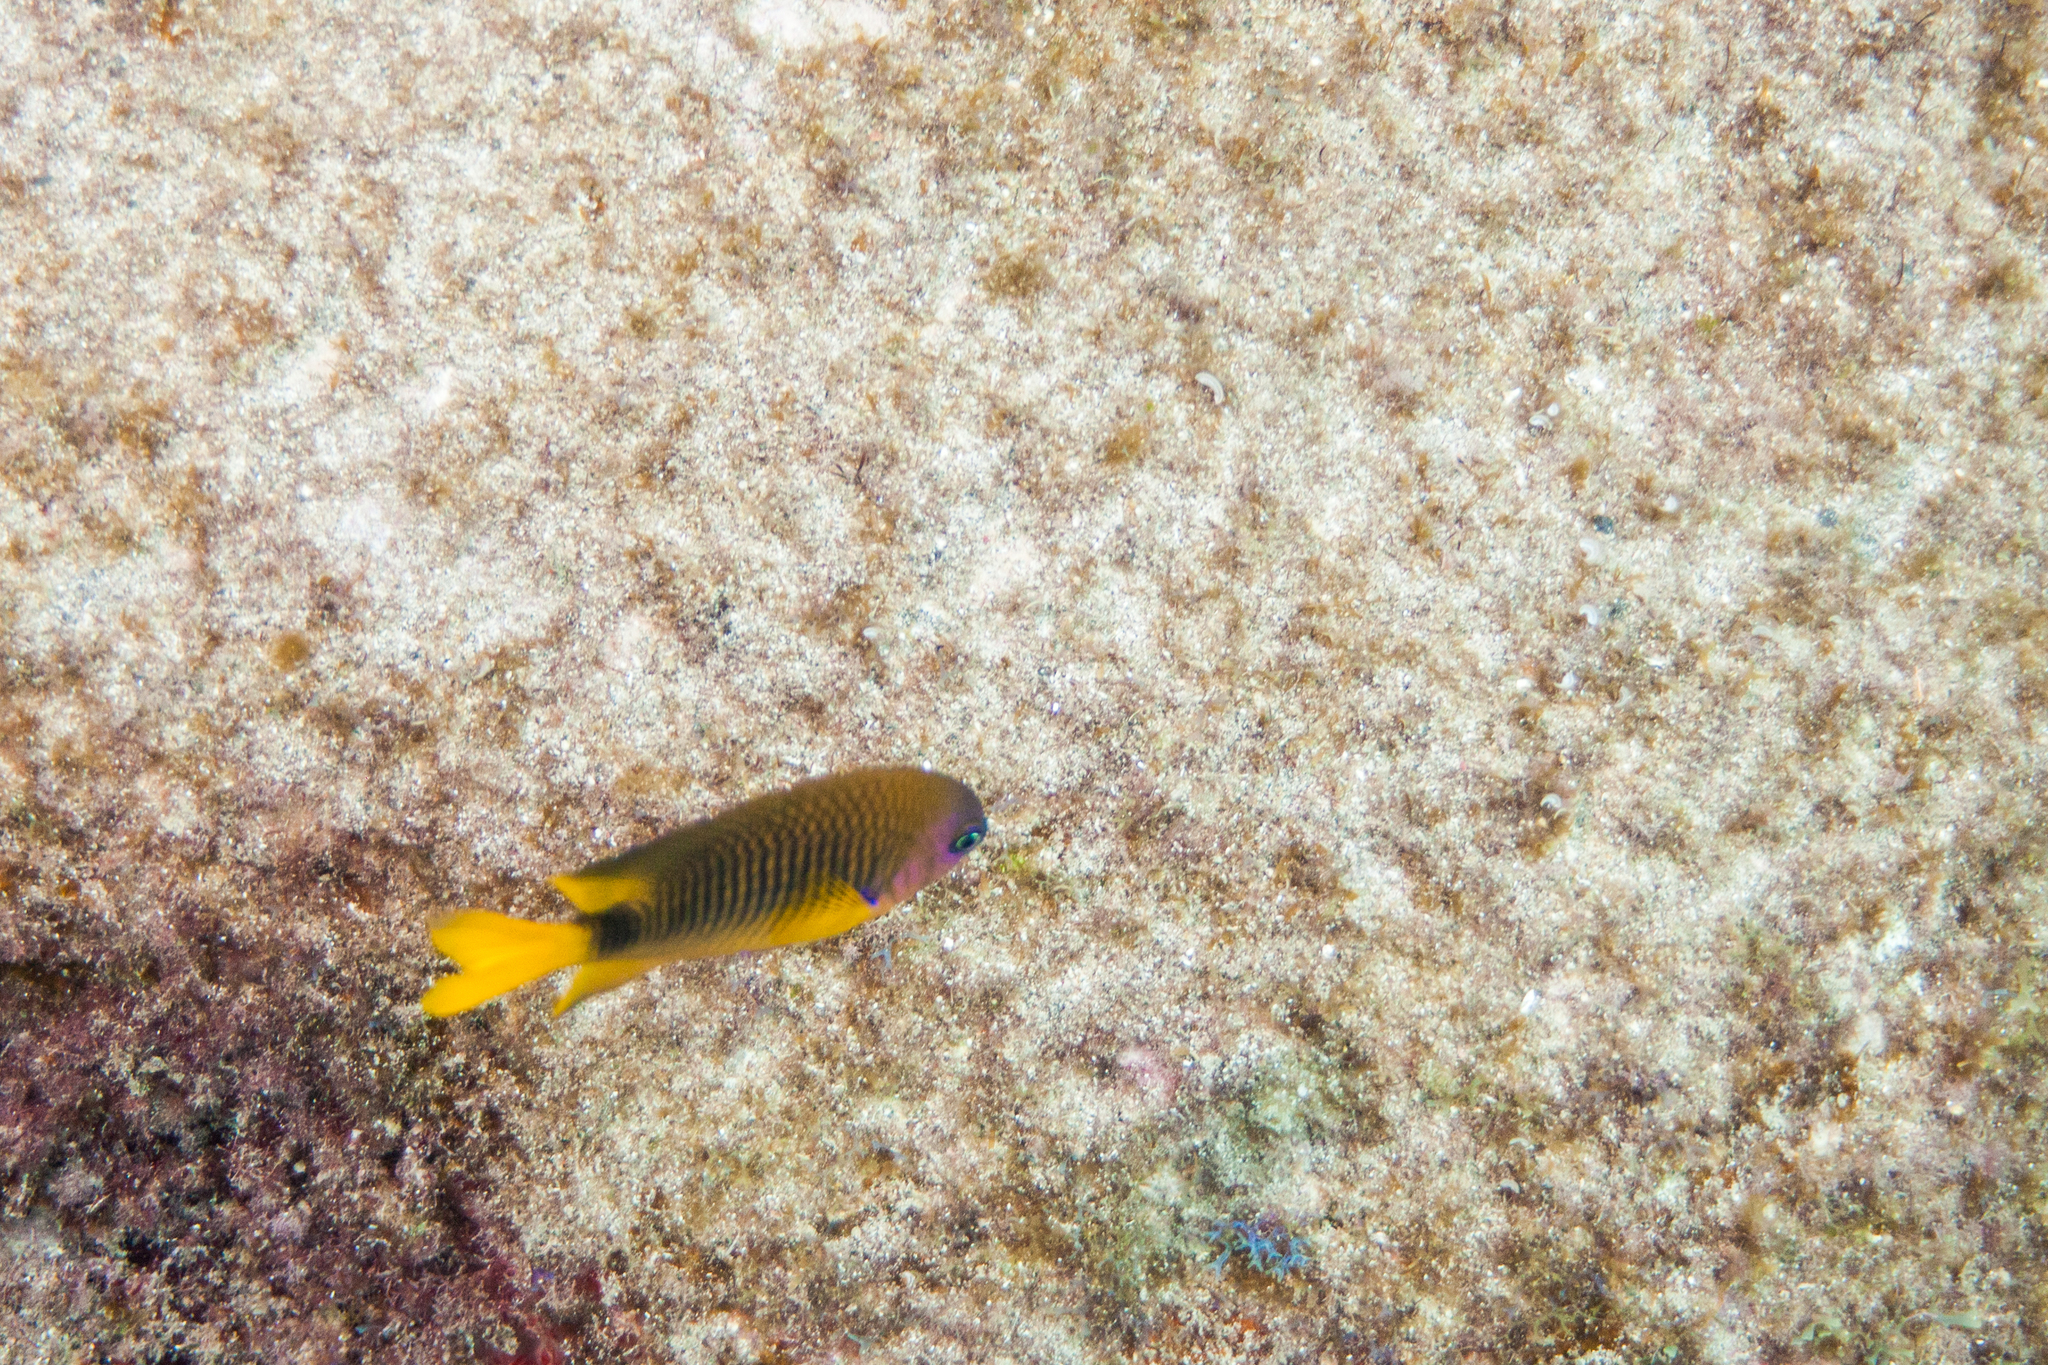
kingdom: Animalia
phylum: Chordata
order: Perciformes
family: Pomacentridae
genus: Stegastes
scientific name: Stegastes rocasensis
